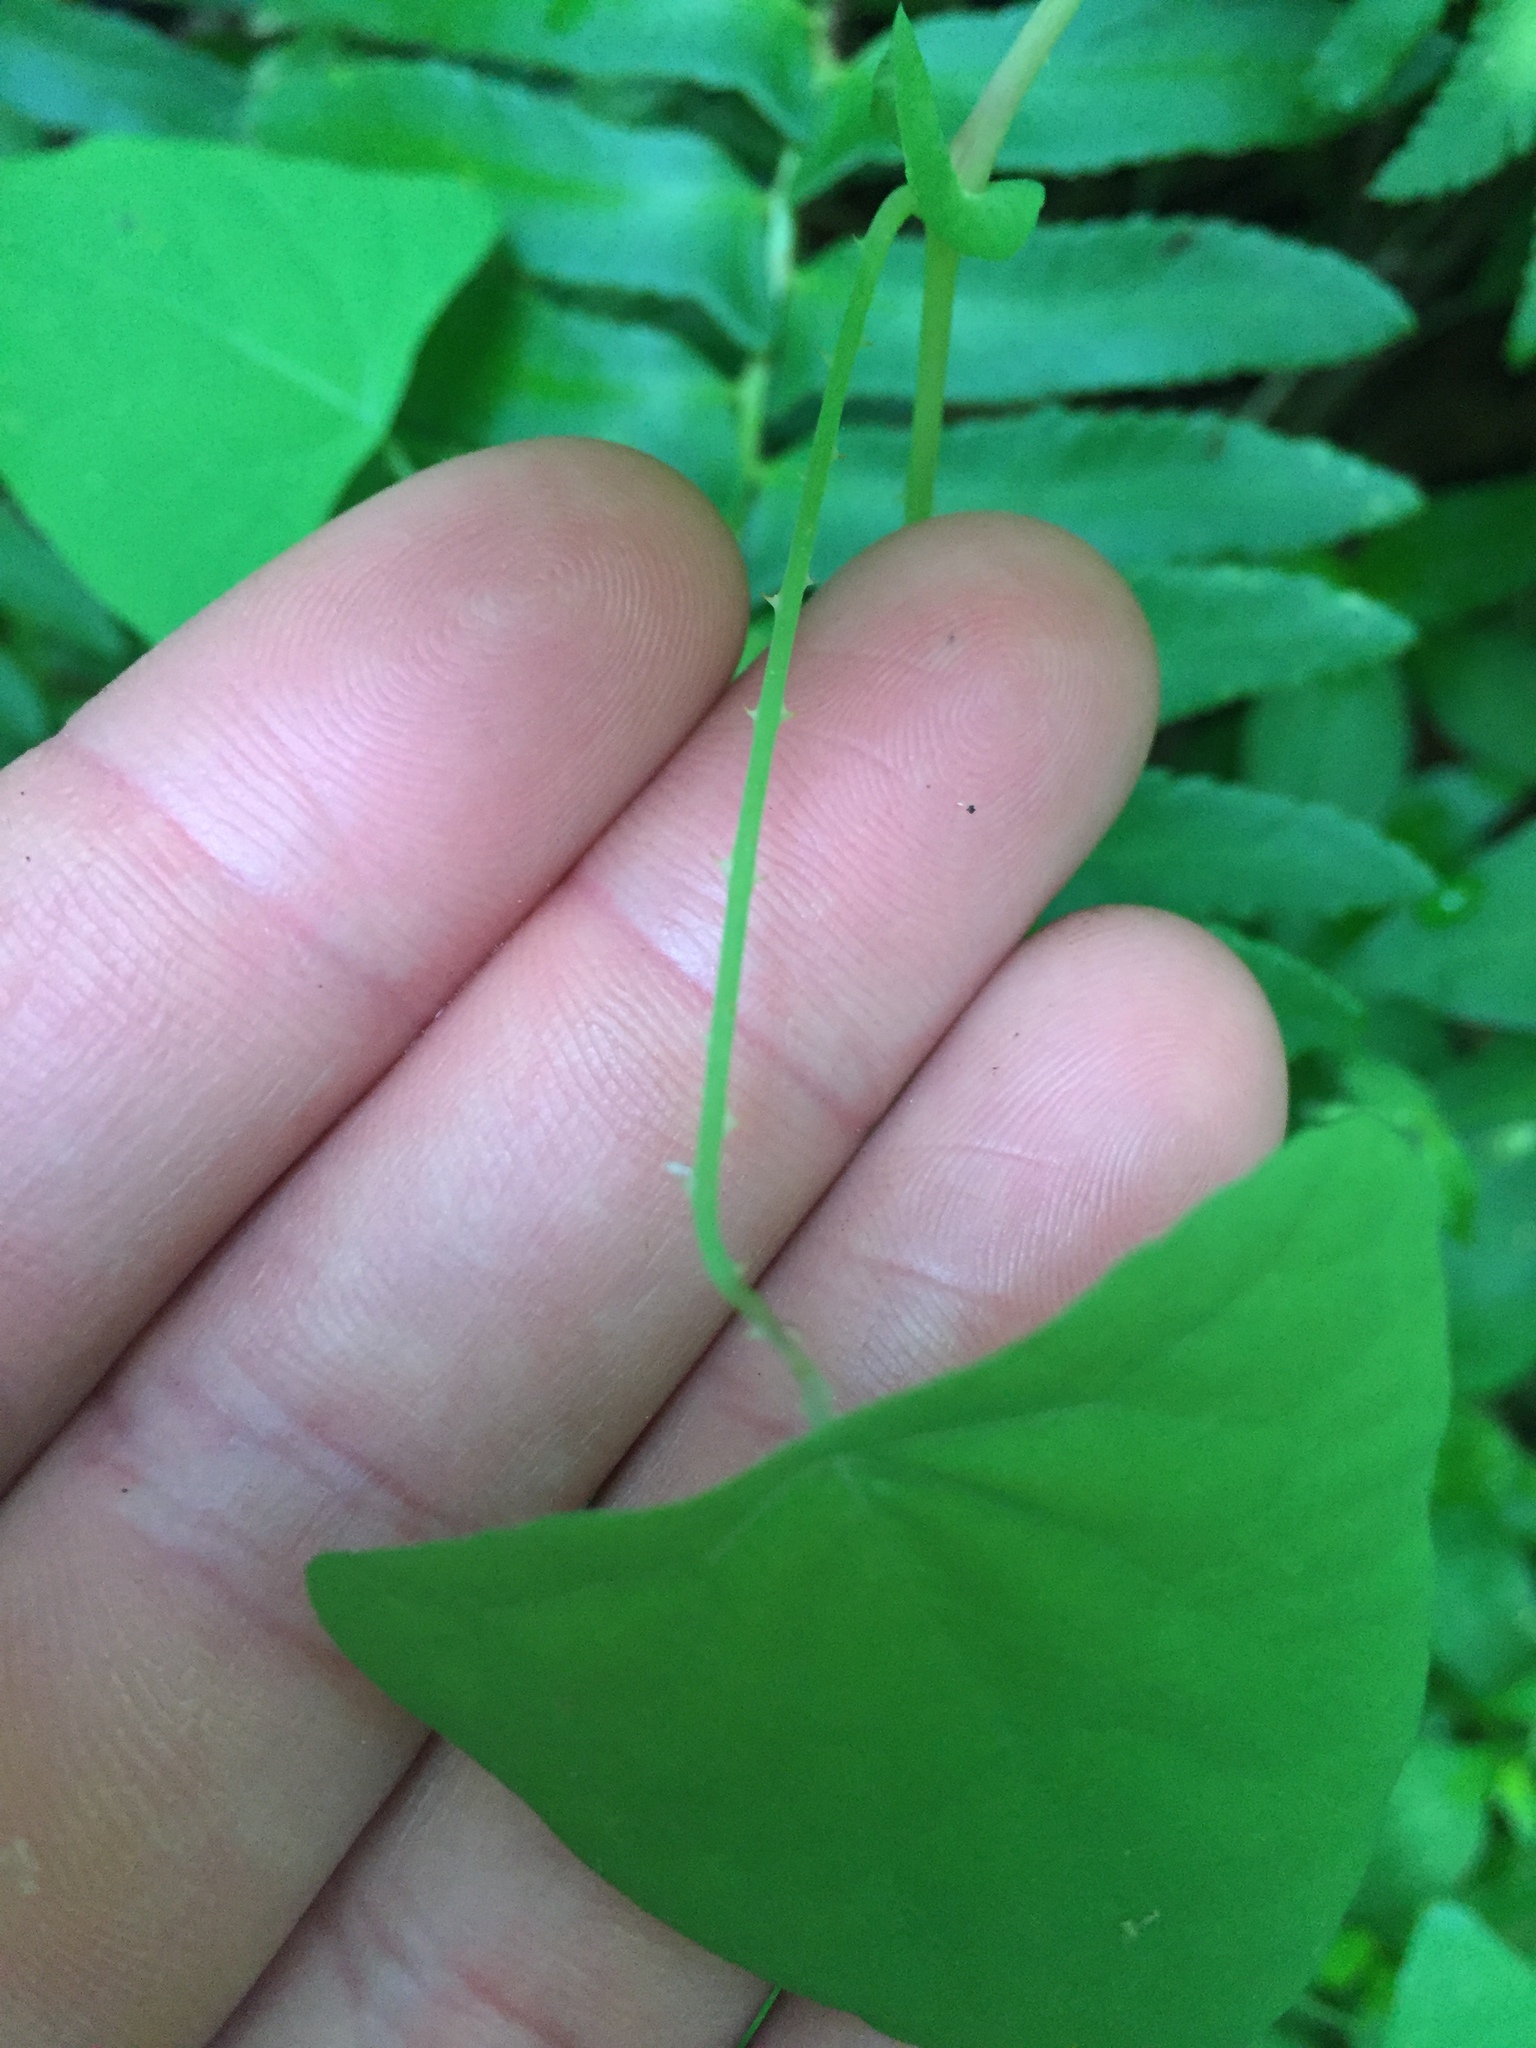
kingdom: Plantae
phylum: Tracheophyta
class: Magnoliopsida
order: Caryophyllales
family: Polygonaceae
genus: Persicaria
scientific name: Persicaria perfoliata
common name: Asiatic tearthumb
